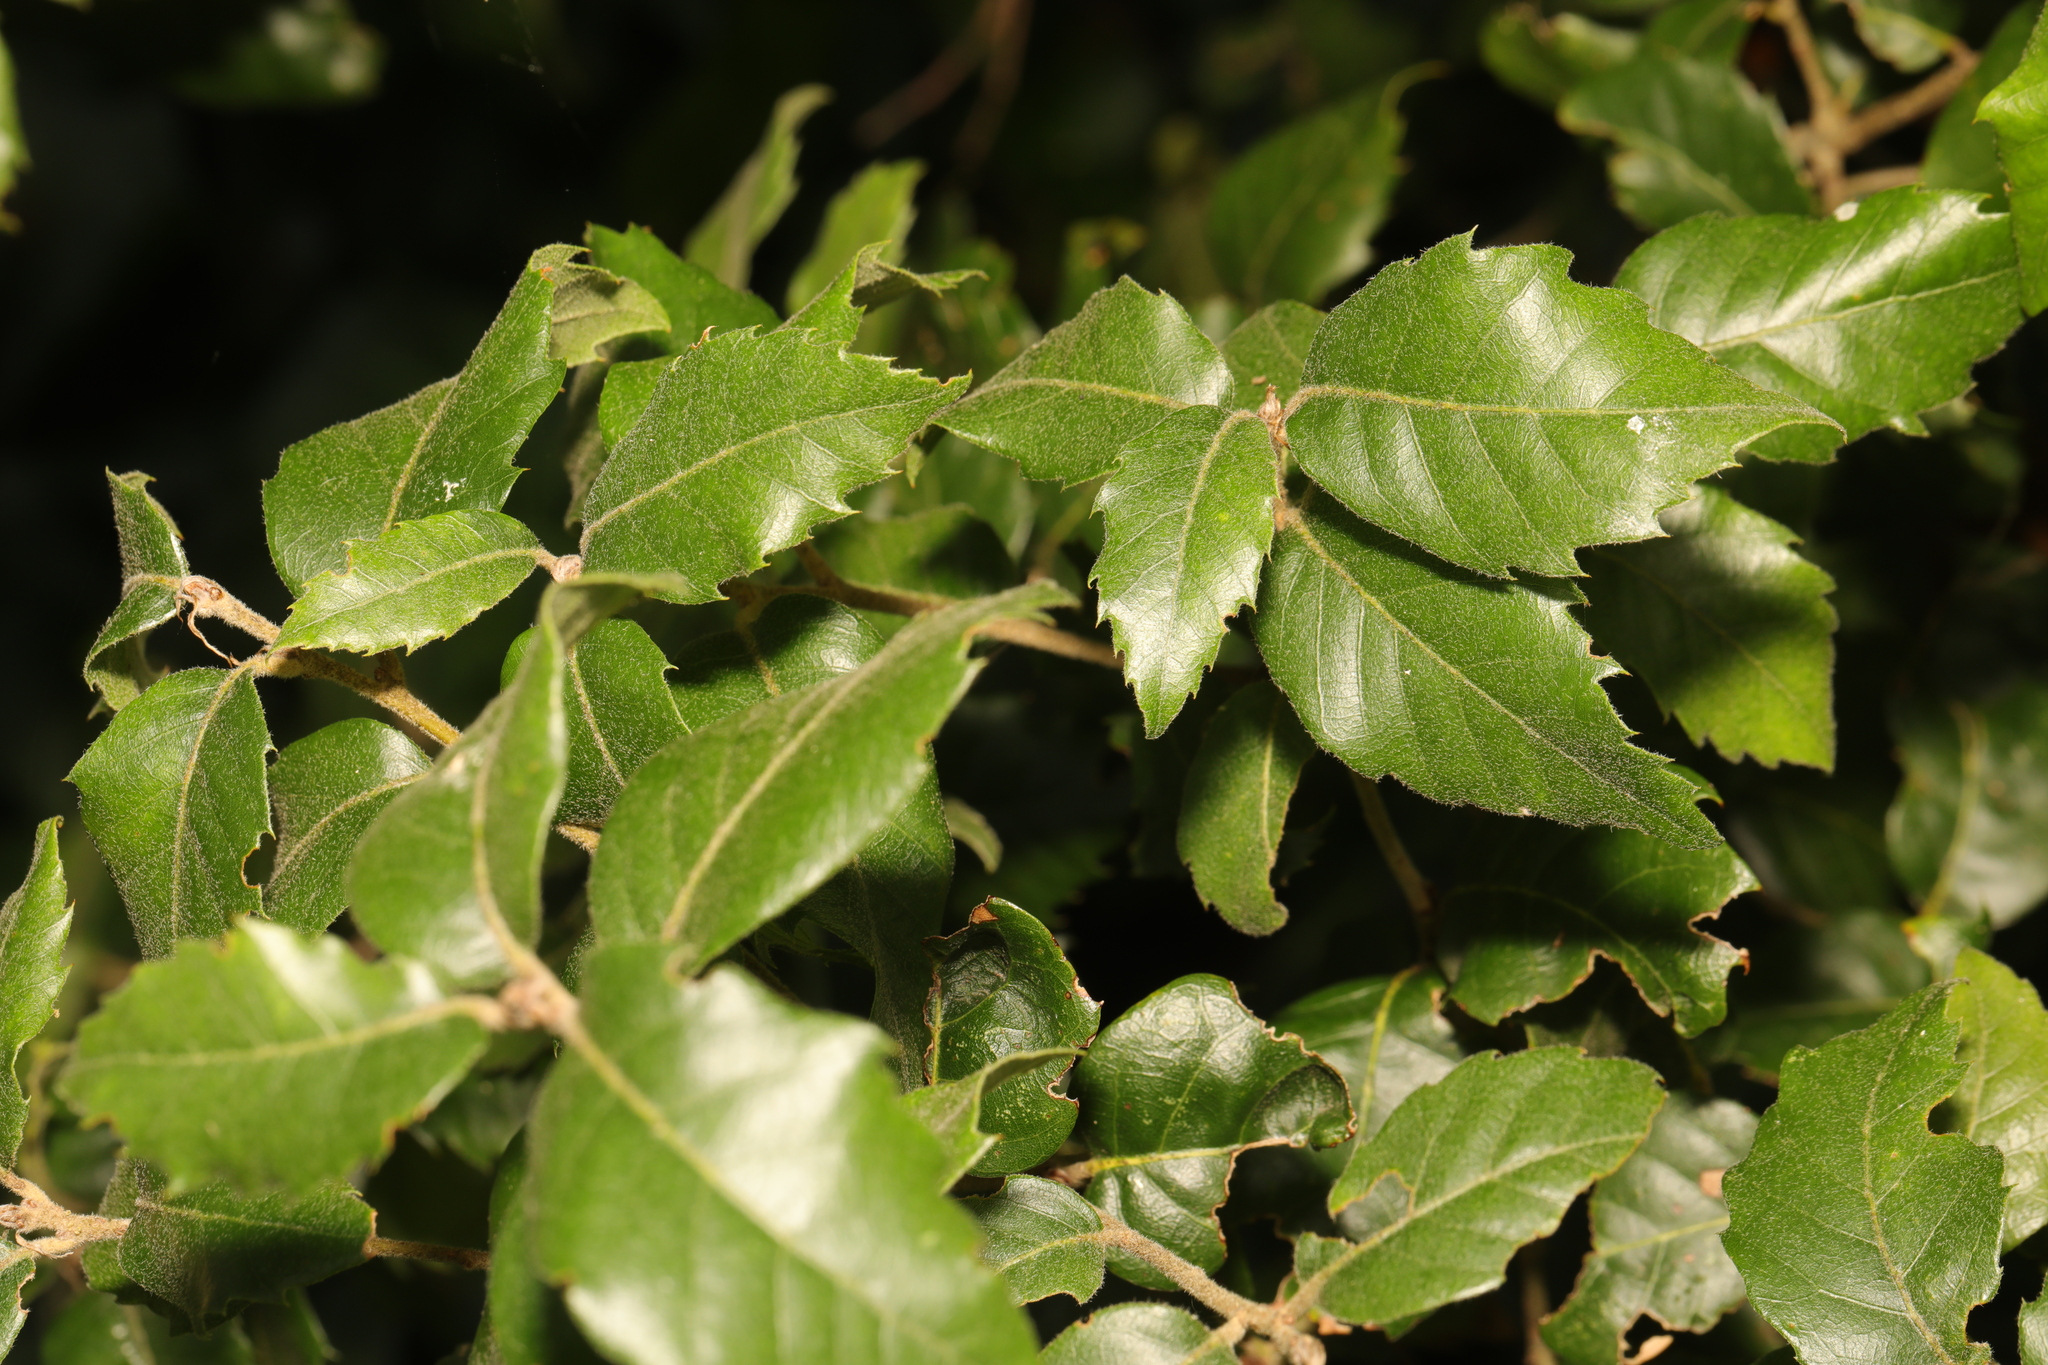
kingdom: Plantae
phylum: Tracheophyta
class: Magnoliopsida
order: Fagales
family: Fagaceae
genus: Quercus
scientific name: Quercus ilex
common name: Evergreen oak
